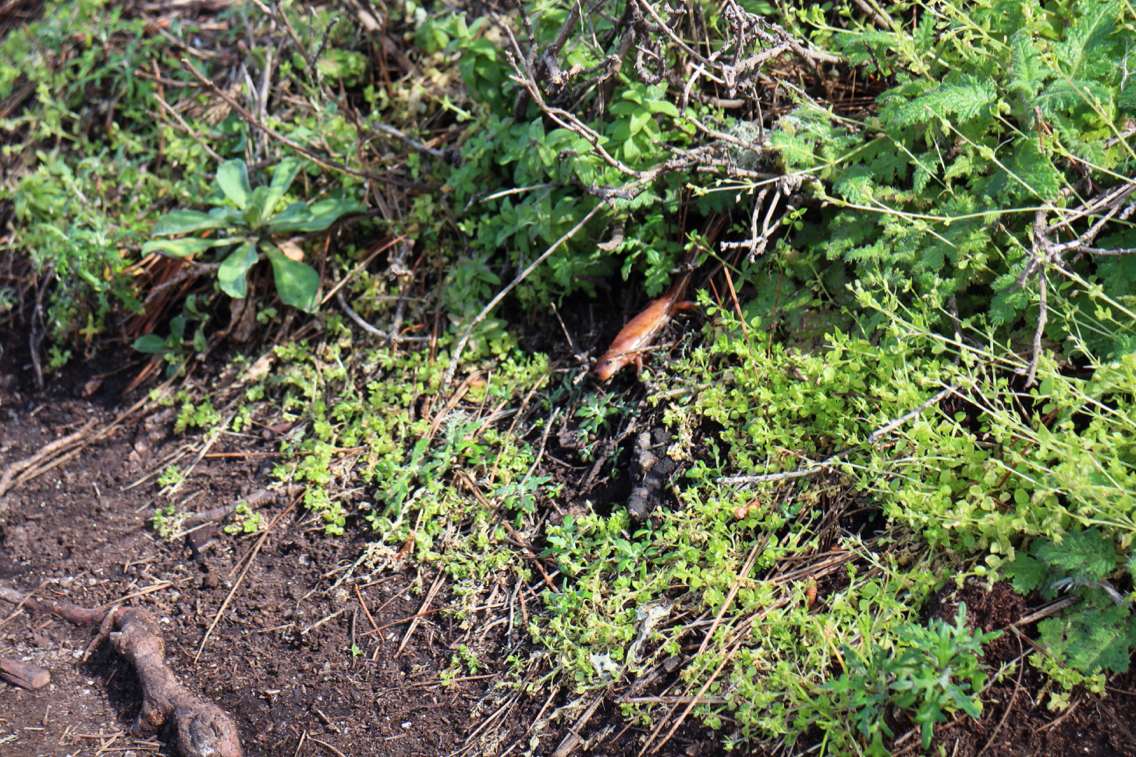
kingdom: Animalia
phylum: Chordata
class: Amphibia
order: Caudata
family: Plethodontidae
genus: Ensatina
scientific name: Ensatina eschscholtzii
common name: Ensatina
